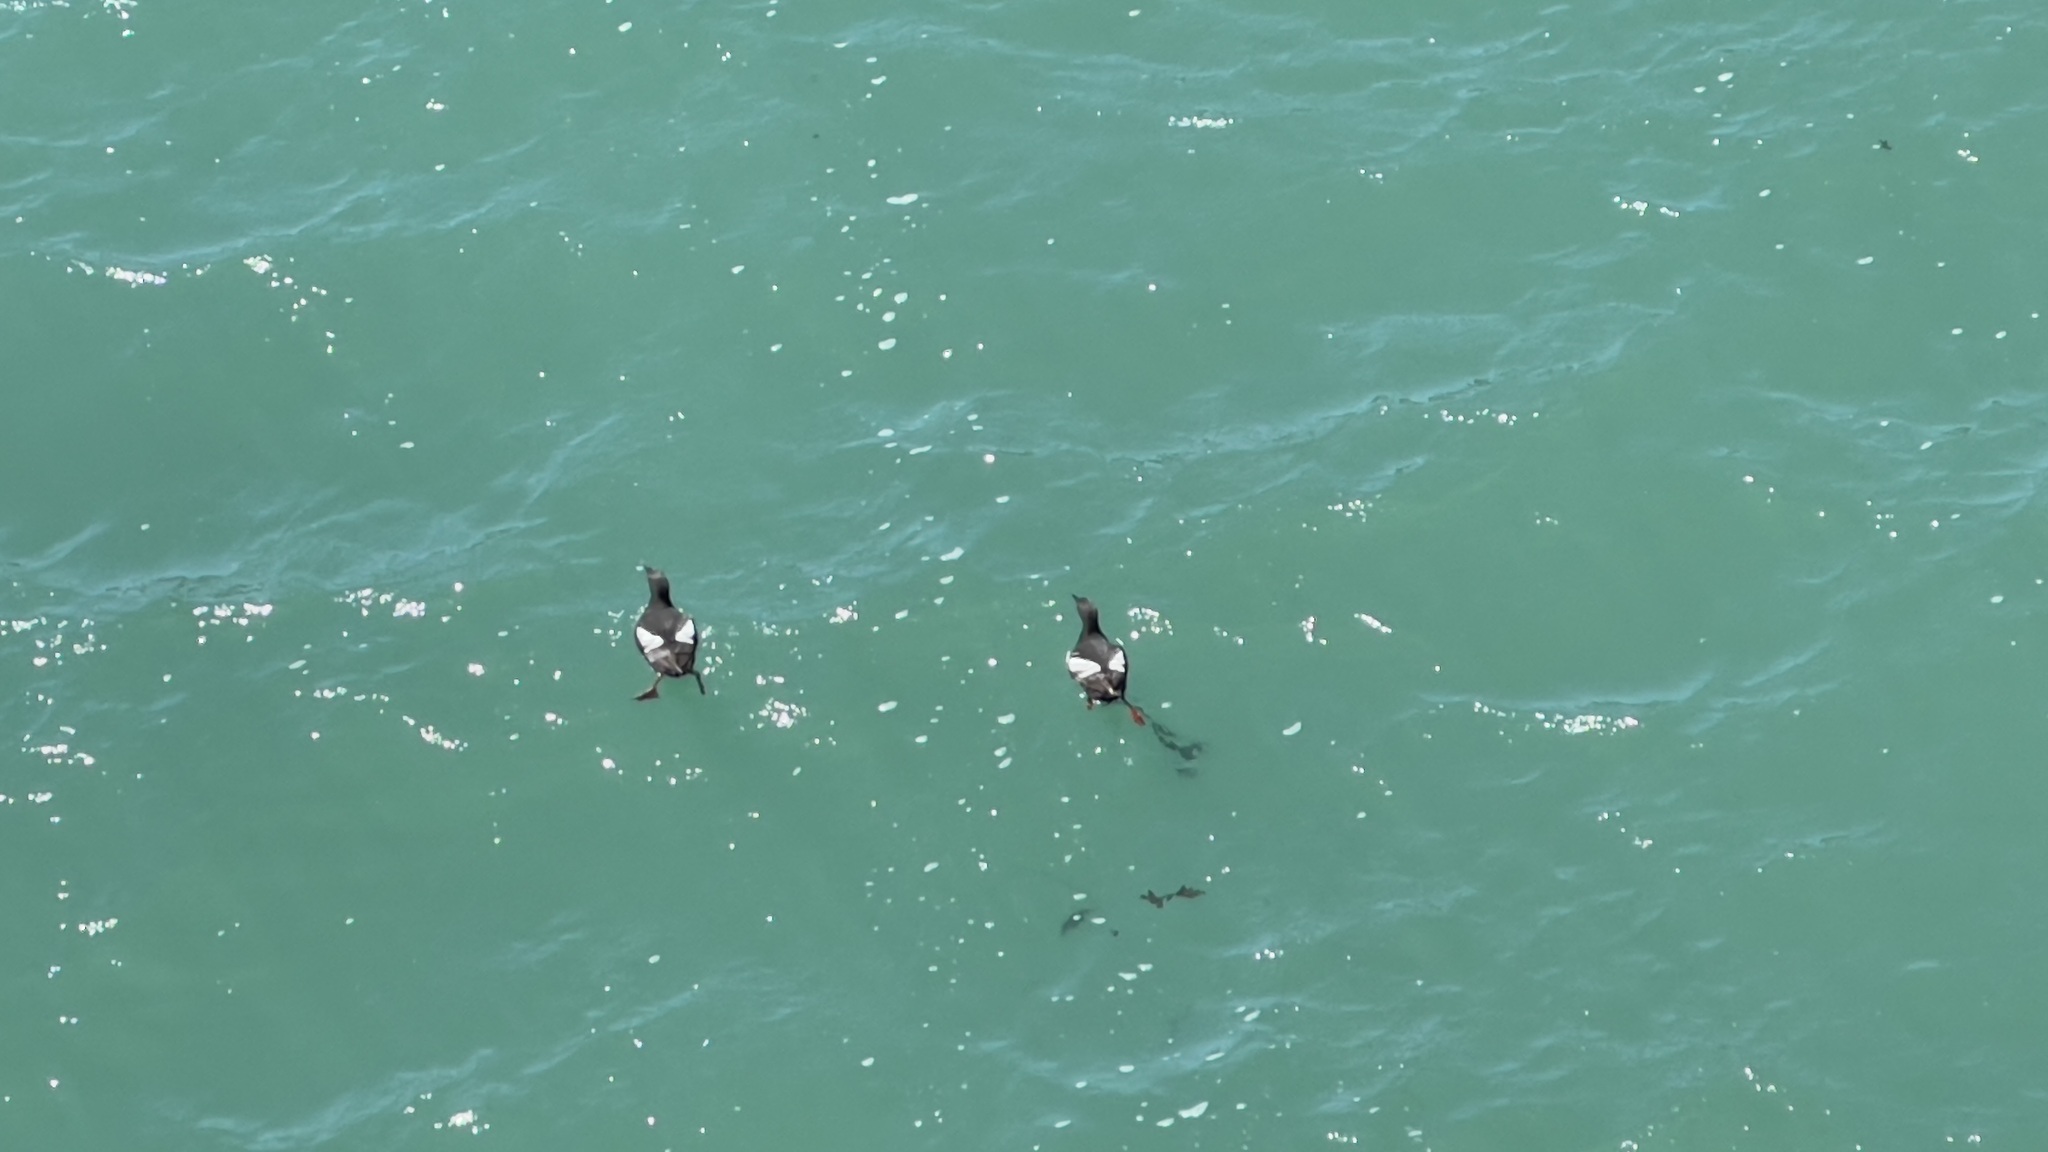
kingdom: Animalia
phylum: Chordata
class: Aves
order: Charadriiformes
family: Alcidae
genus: Cepphus
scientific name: Cepphus columba
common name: Pigeon guillemot
